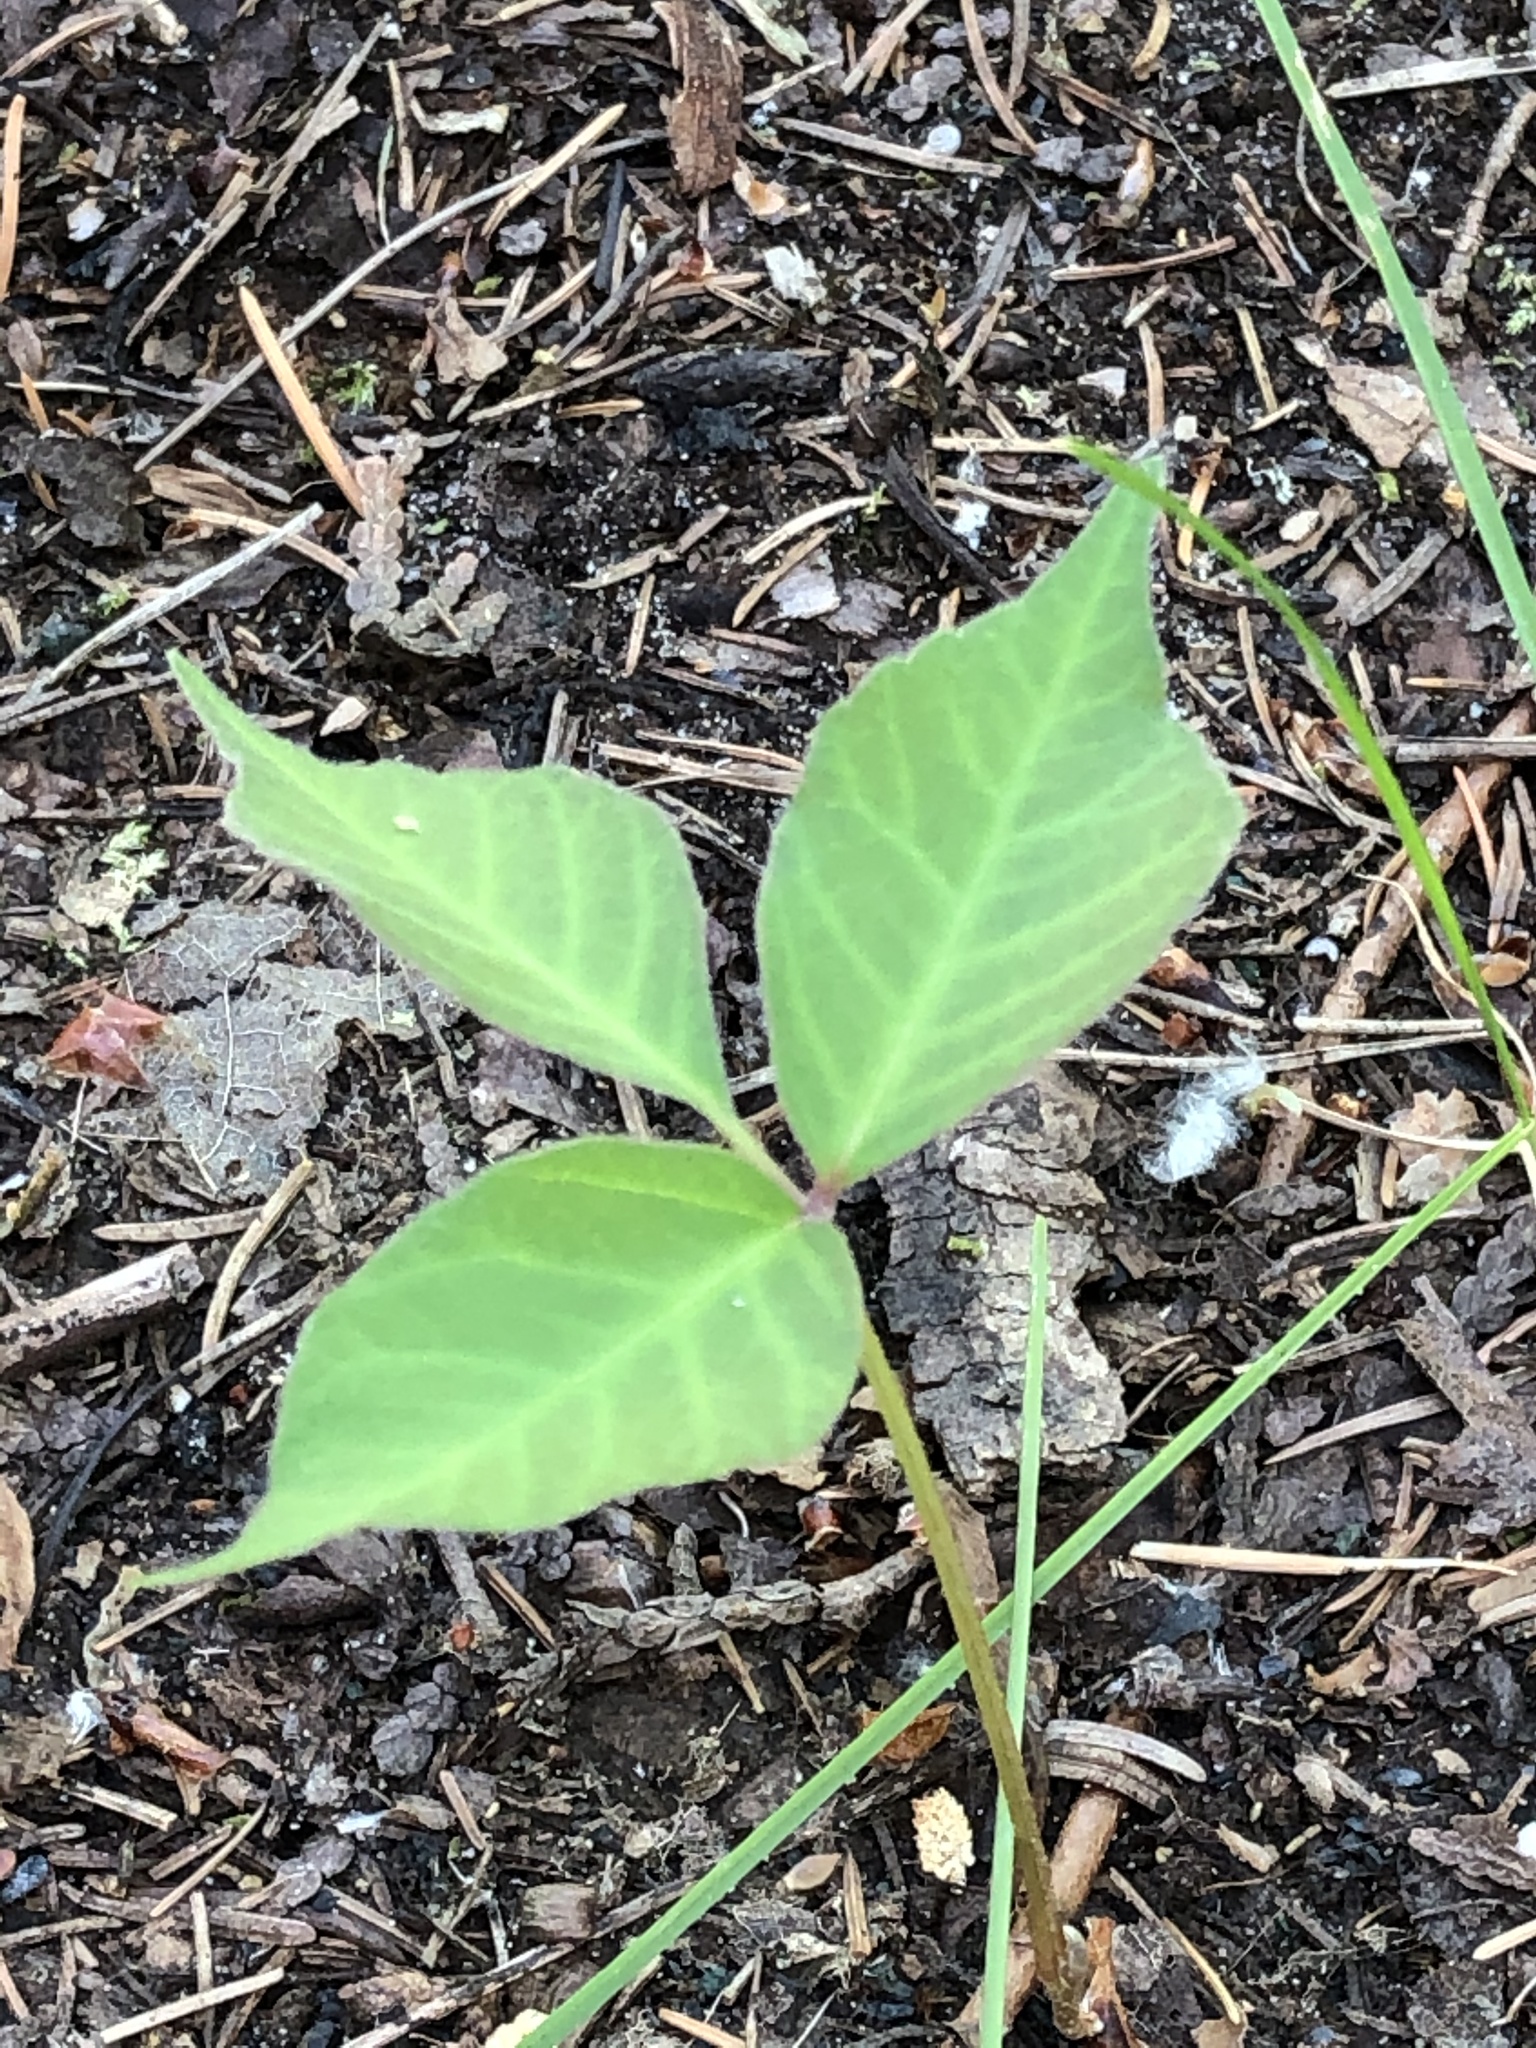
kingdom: Plantae
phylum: Tracheophyta
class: Magnoliopsida
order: Sapindales
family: Anacardiaceae
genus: Toxicodendron
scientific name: Toxicodendron rydbergii
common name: Rydberg's poison-ivy
